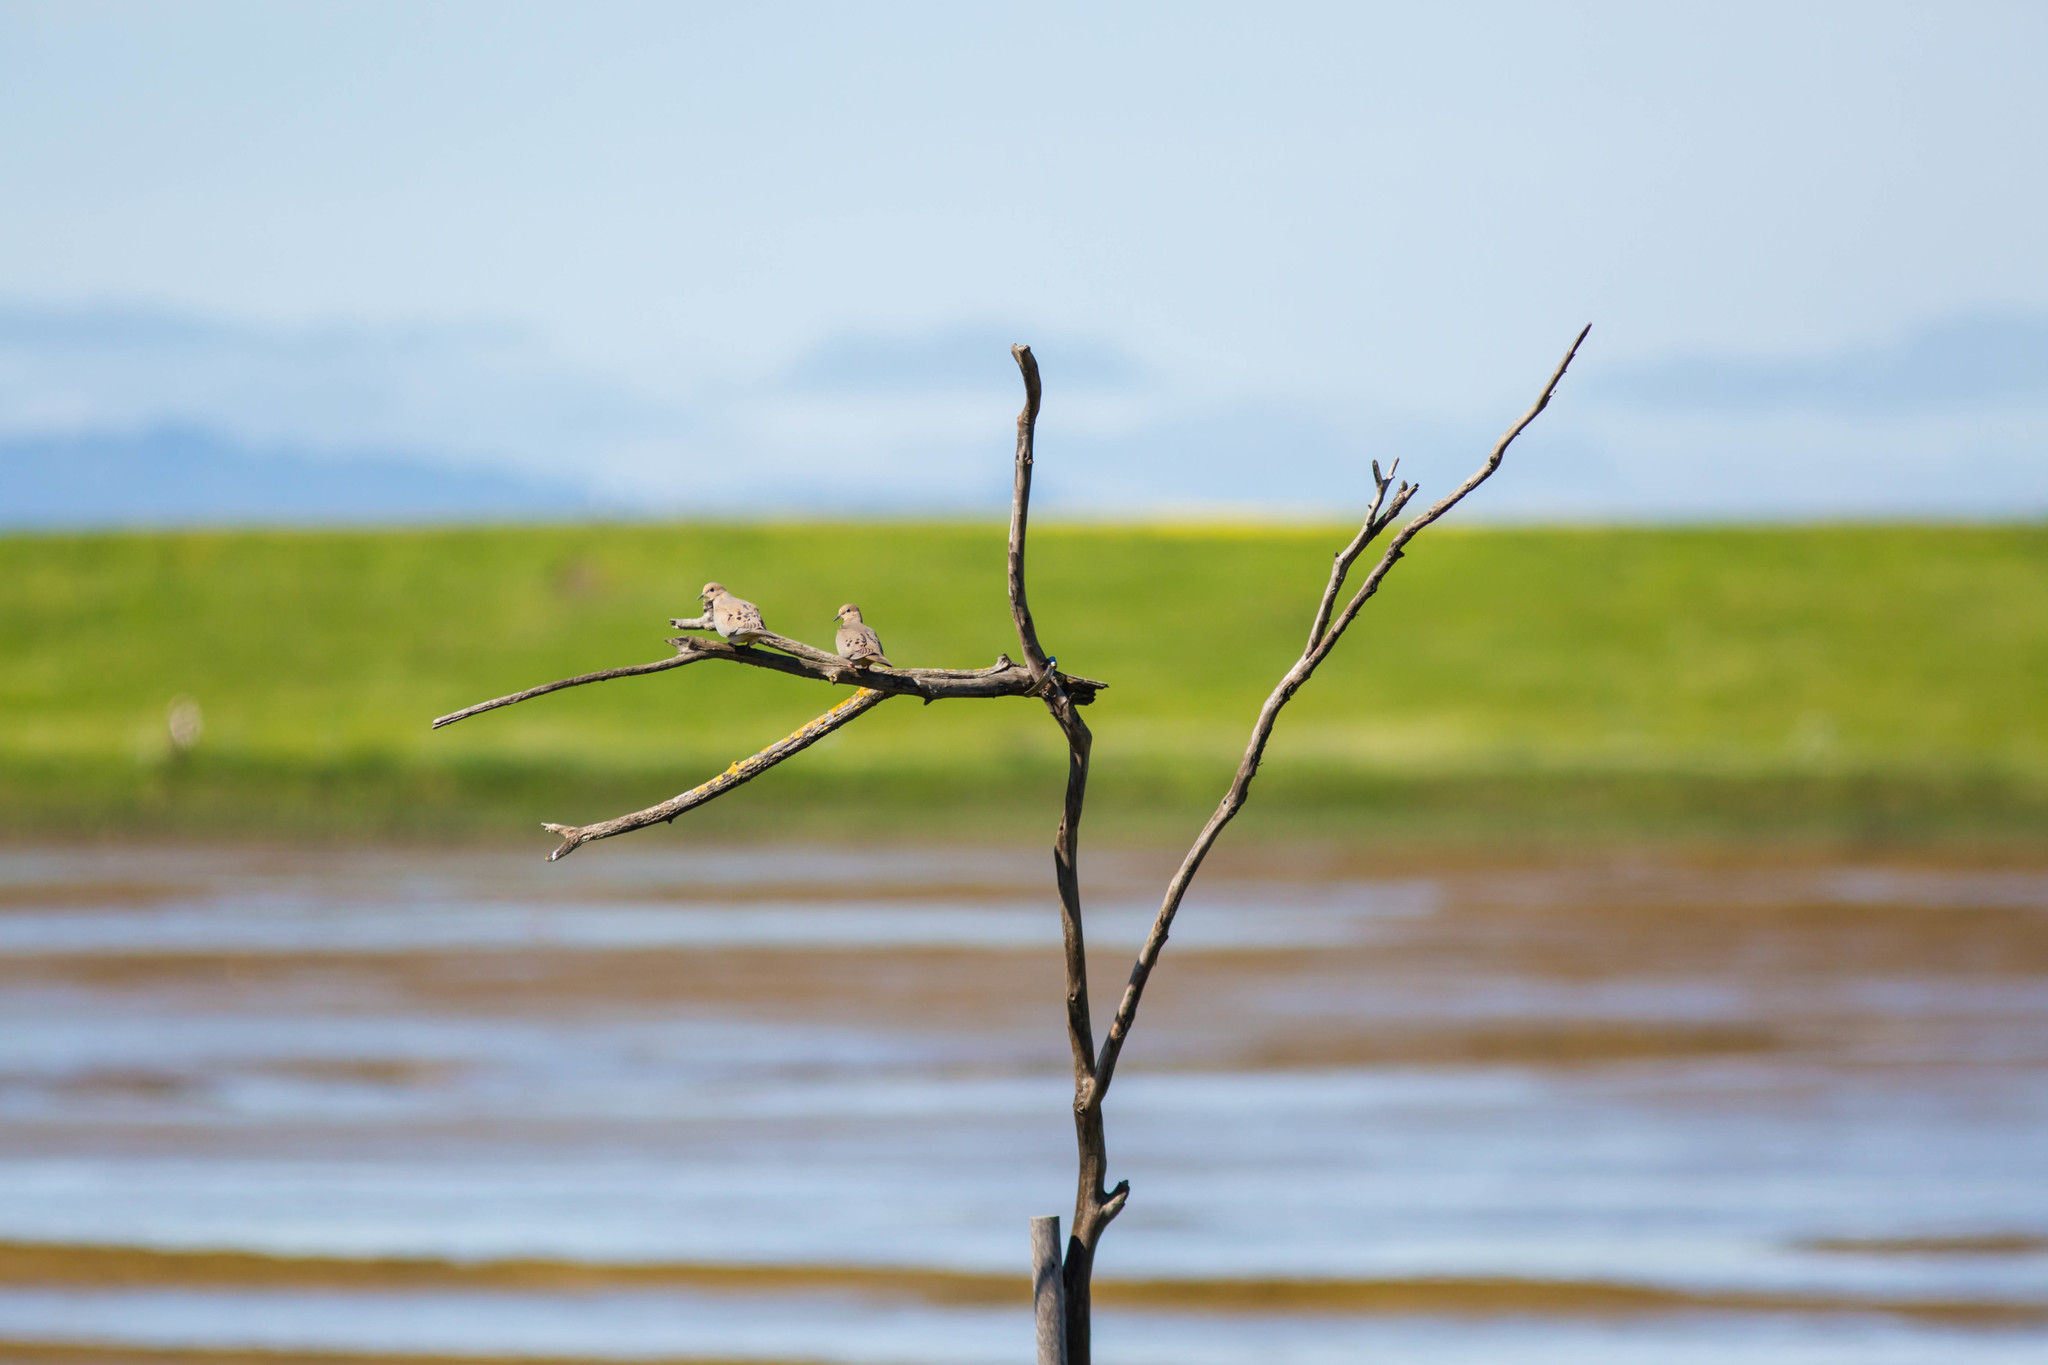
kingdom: Animalia
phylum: Chordata
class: Aves
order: Columbiformes
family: Columbidae
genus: Zenaida
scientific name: Zenaida macroura
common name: Mourning dove
